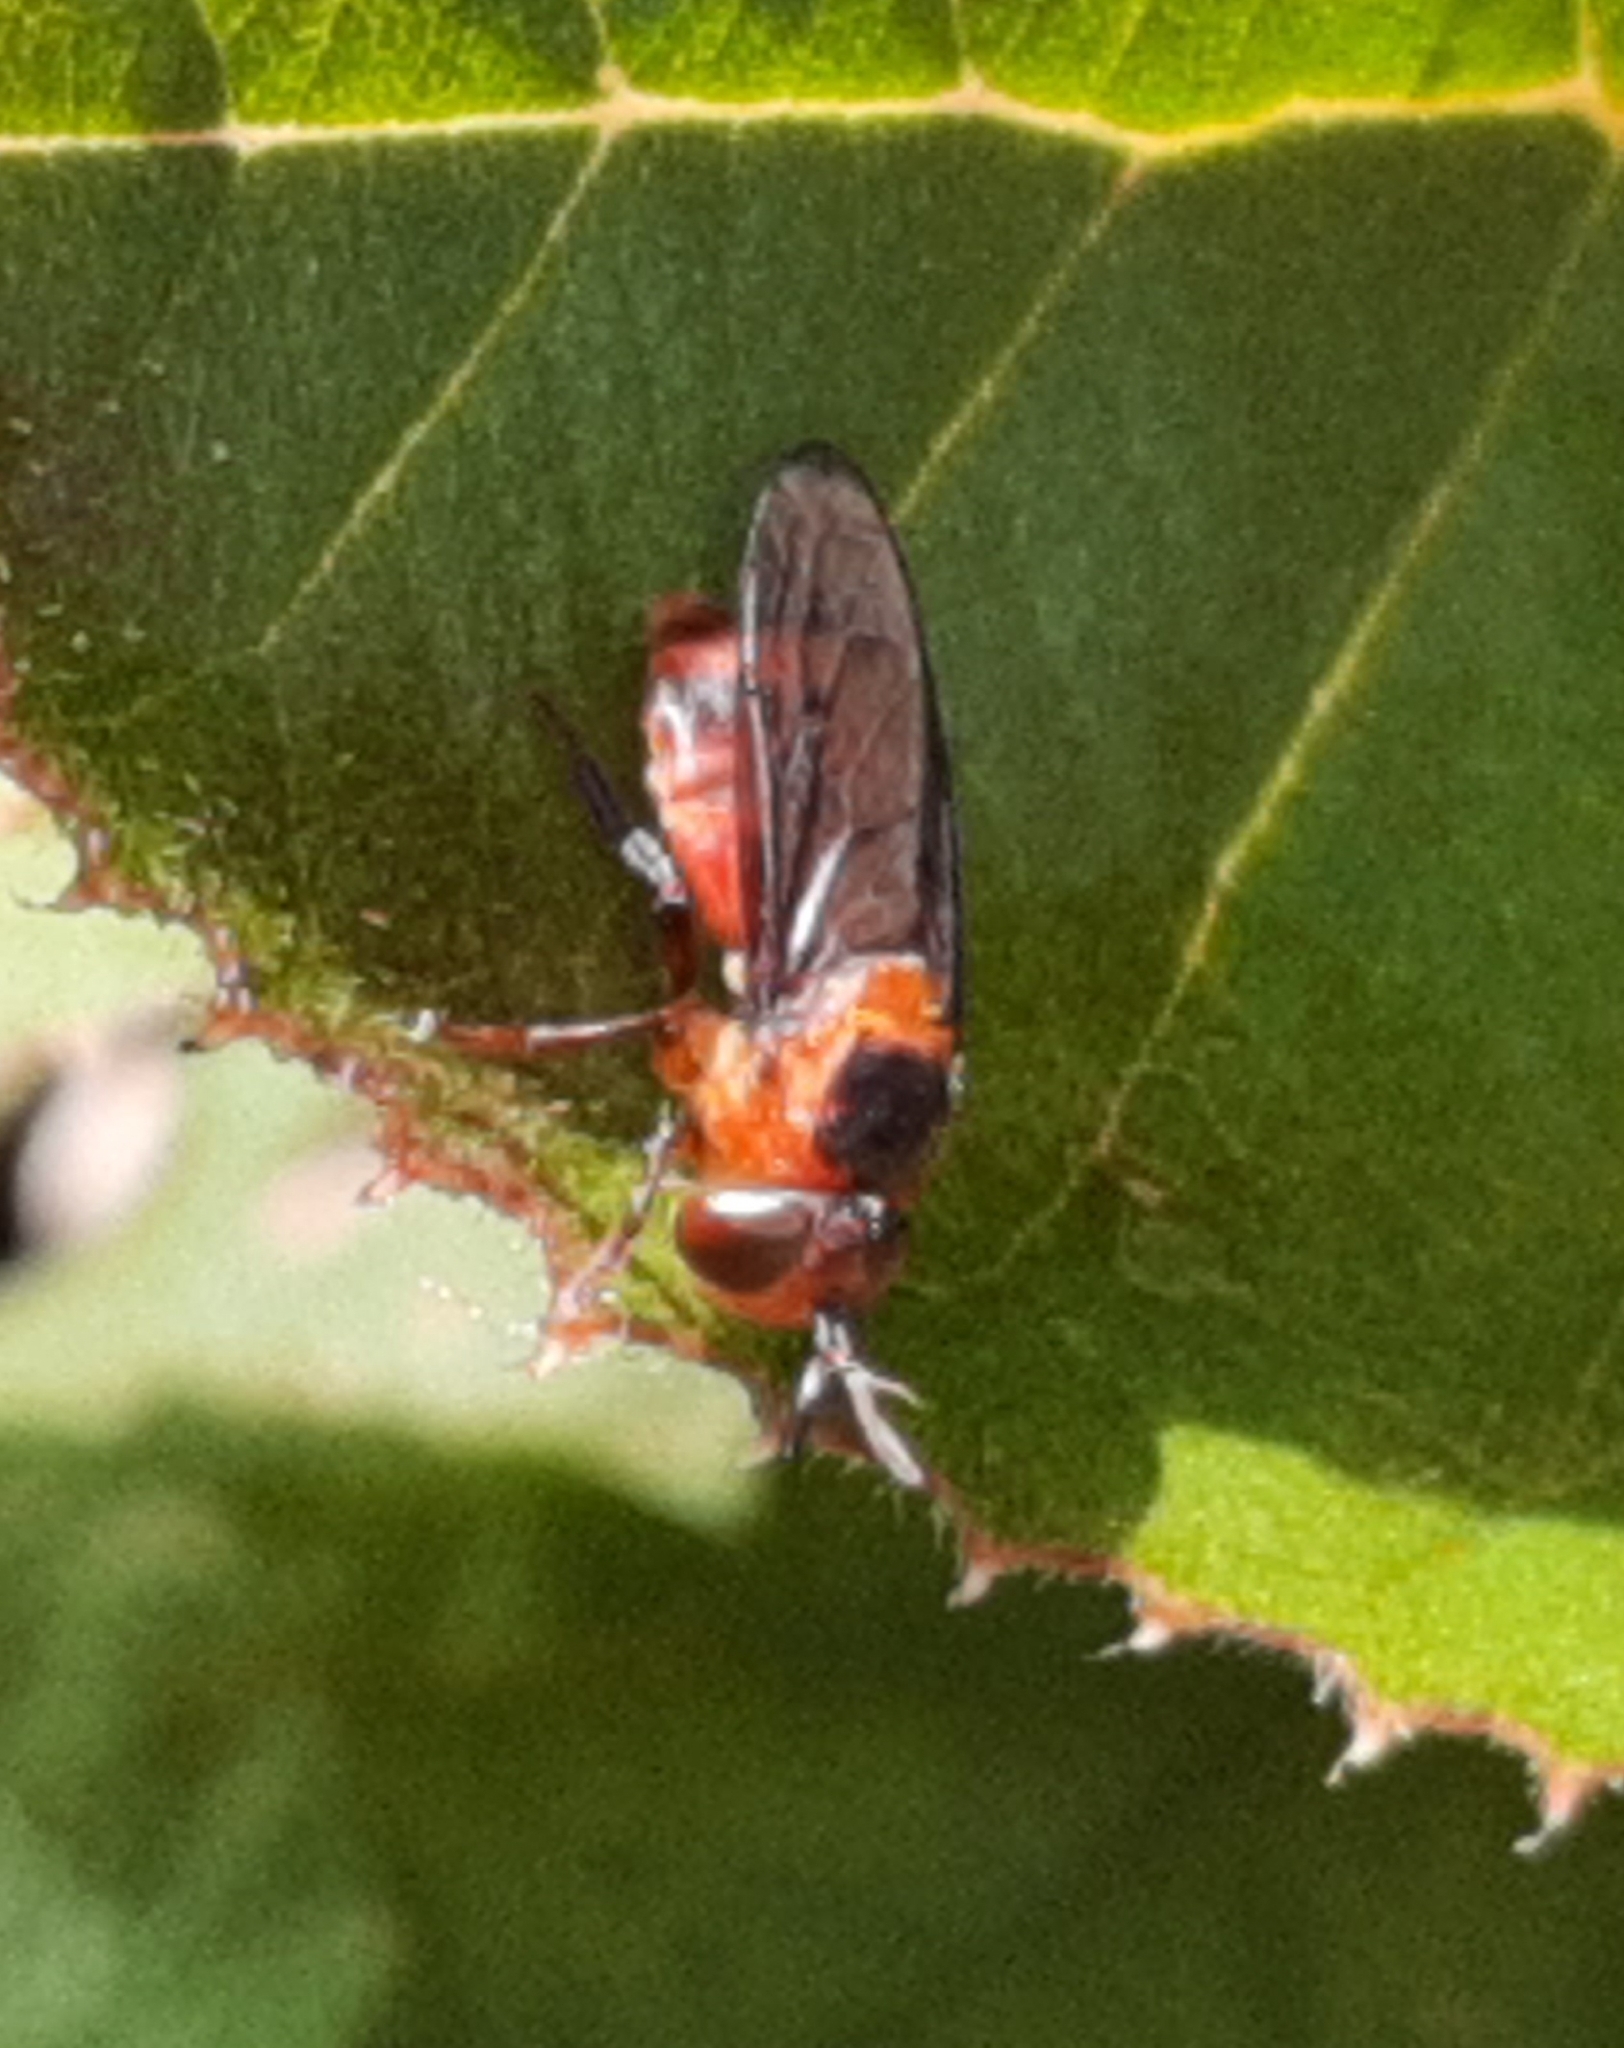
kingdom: Animalia
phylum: Arthropoda
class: Insecta
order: Diptera
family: Syrphidae
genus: Menidon
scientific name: Menidon falcatus
